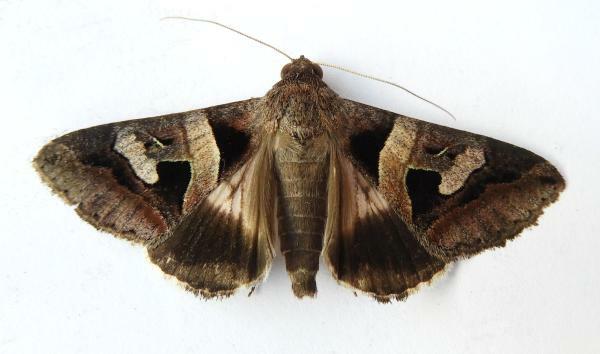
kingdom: Animalia
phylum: Arthropoda
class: Insecta
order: Lepidoptera
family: Erebidae
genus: Melipotis
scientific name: Melipotis florida
